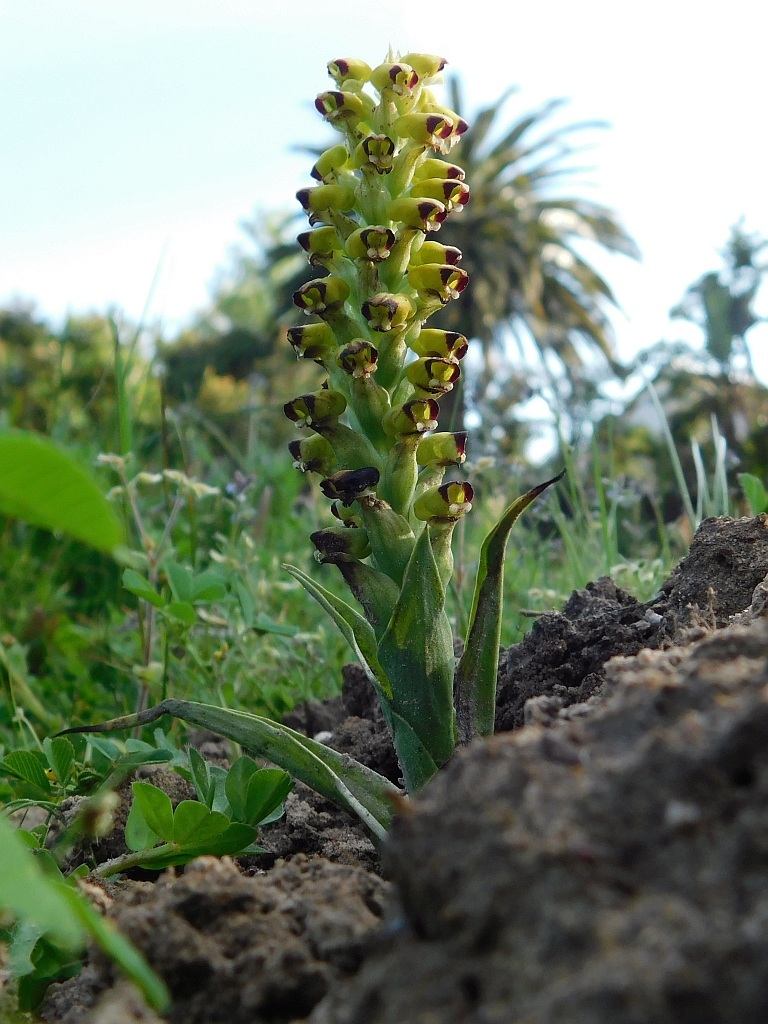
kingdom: Plantae
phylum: Tracheophyta
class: Liliopsida
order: Asparagales
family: Orchidaceae
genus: Corycium
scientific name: Corycium orobanchoides
